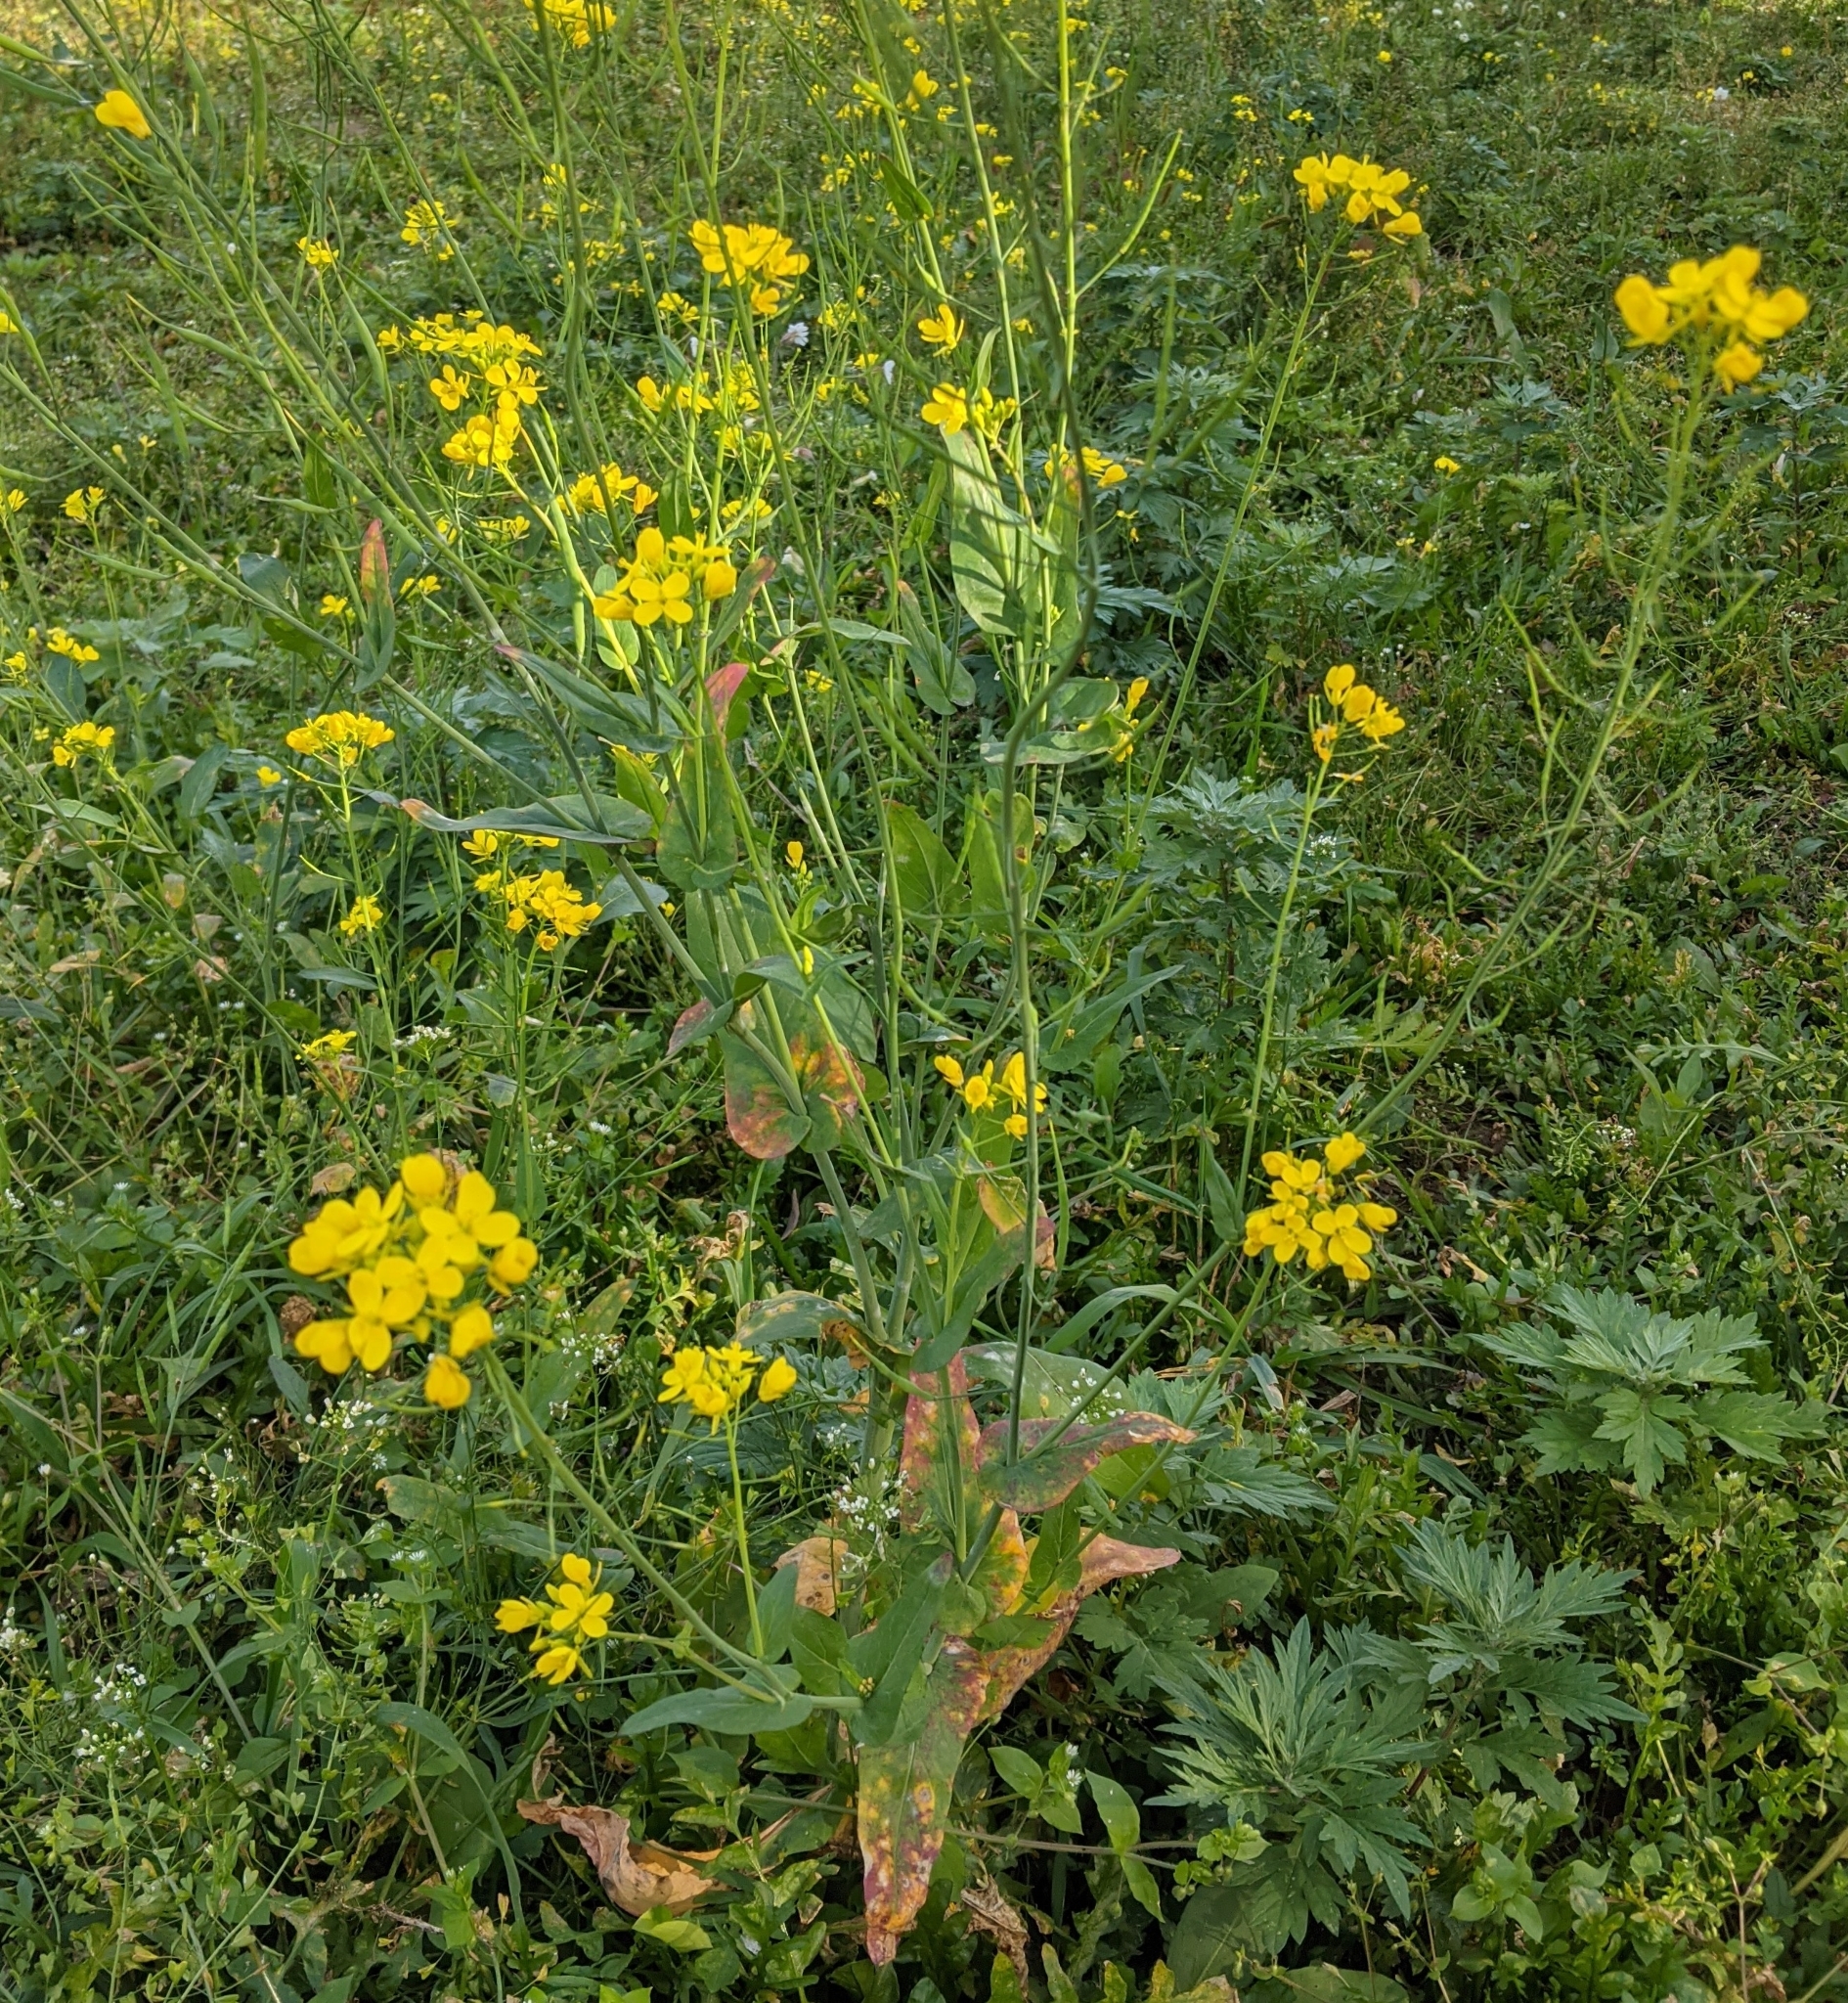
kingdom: Plantae
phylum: Tracheophyta
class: Magnoliopsida
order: Brassicales
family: Brassicaceae
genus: Brassica
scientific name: Brassica rapa
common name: Field mustard
